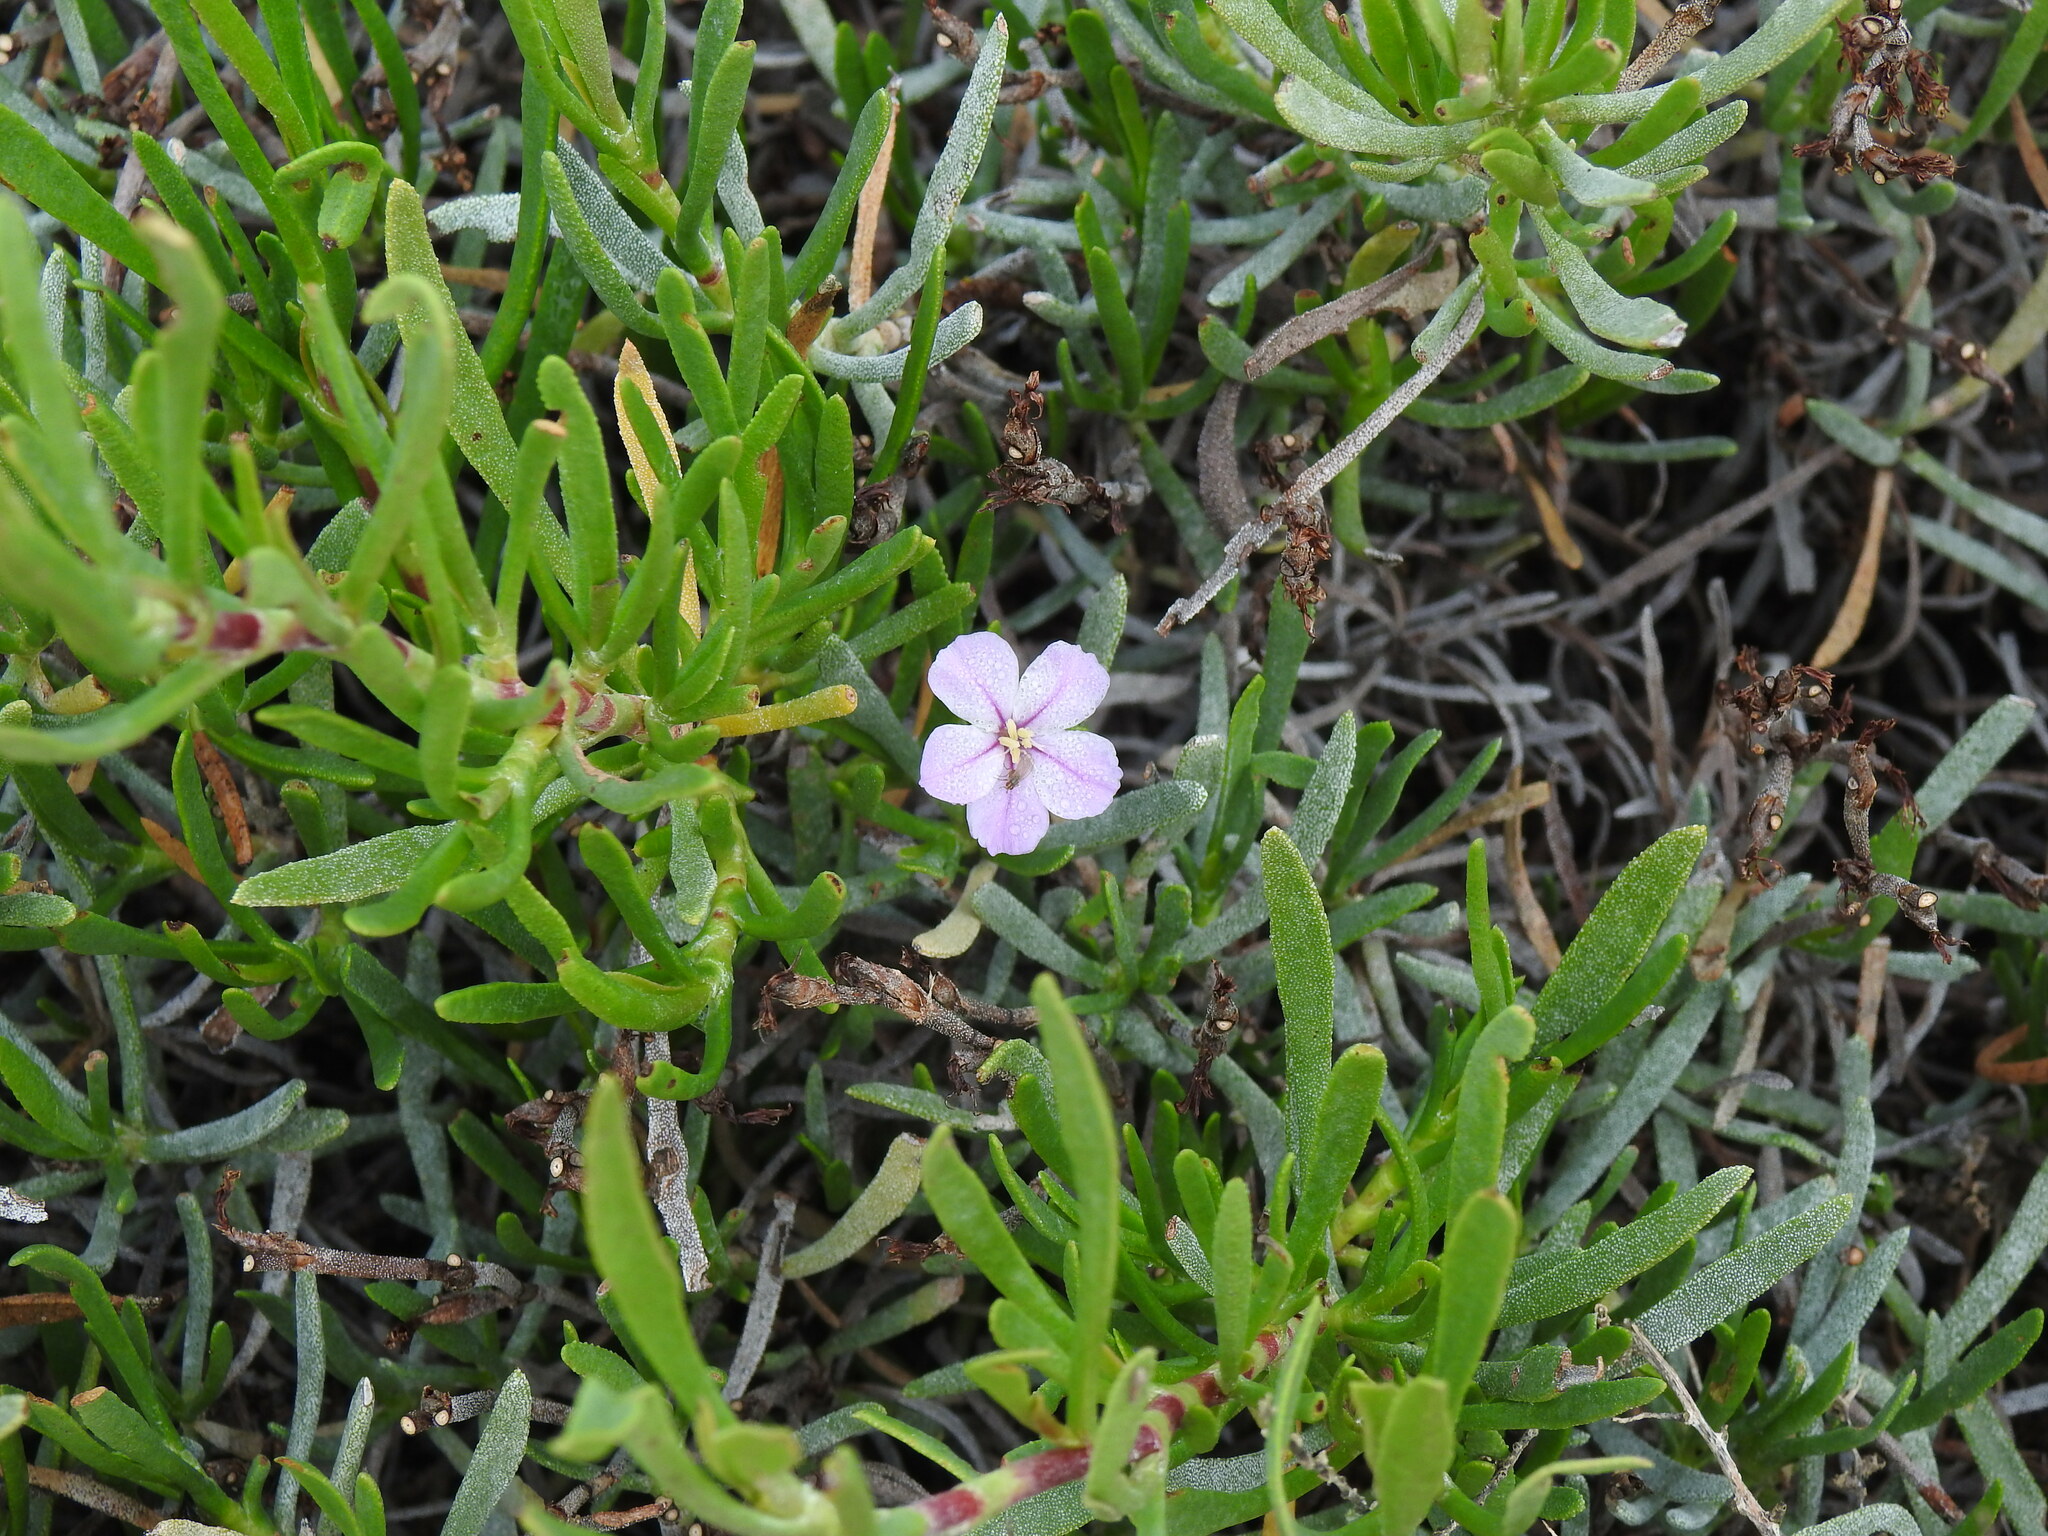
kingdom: Plantae
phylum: Tracheophyta
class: Magnoliopsida
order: Caryophyllales
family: Plumbaginaceae
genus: Limoniastrum
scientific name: Limoniastrum monopetalum
